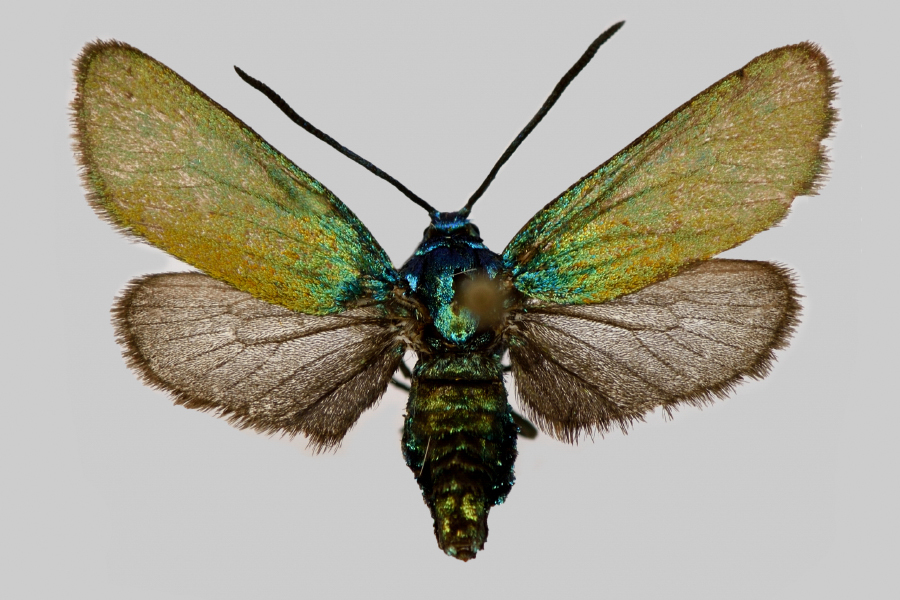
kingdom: Animalia
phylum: Arthropoda
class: Insecta
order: Lepidoptera
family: Zygaenidae
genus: Jordanita
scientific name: Jordanita chloros
